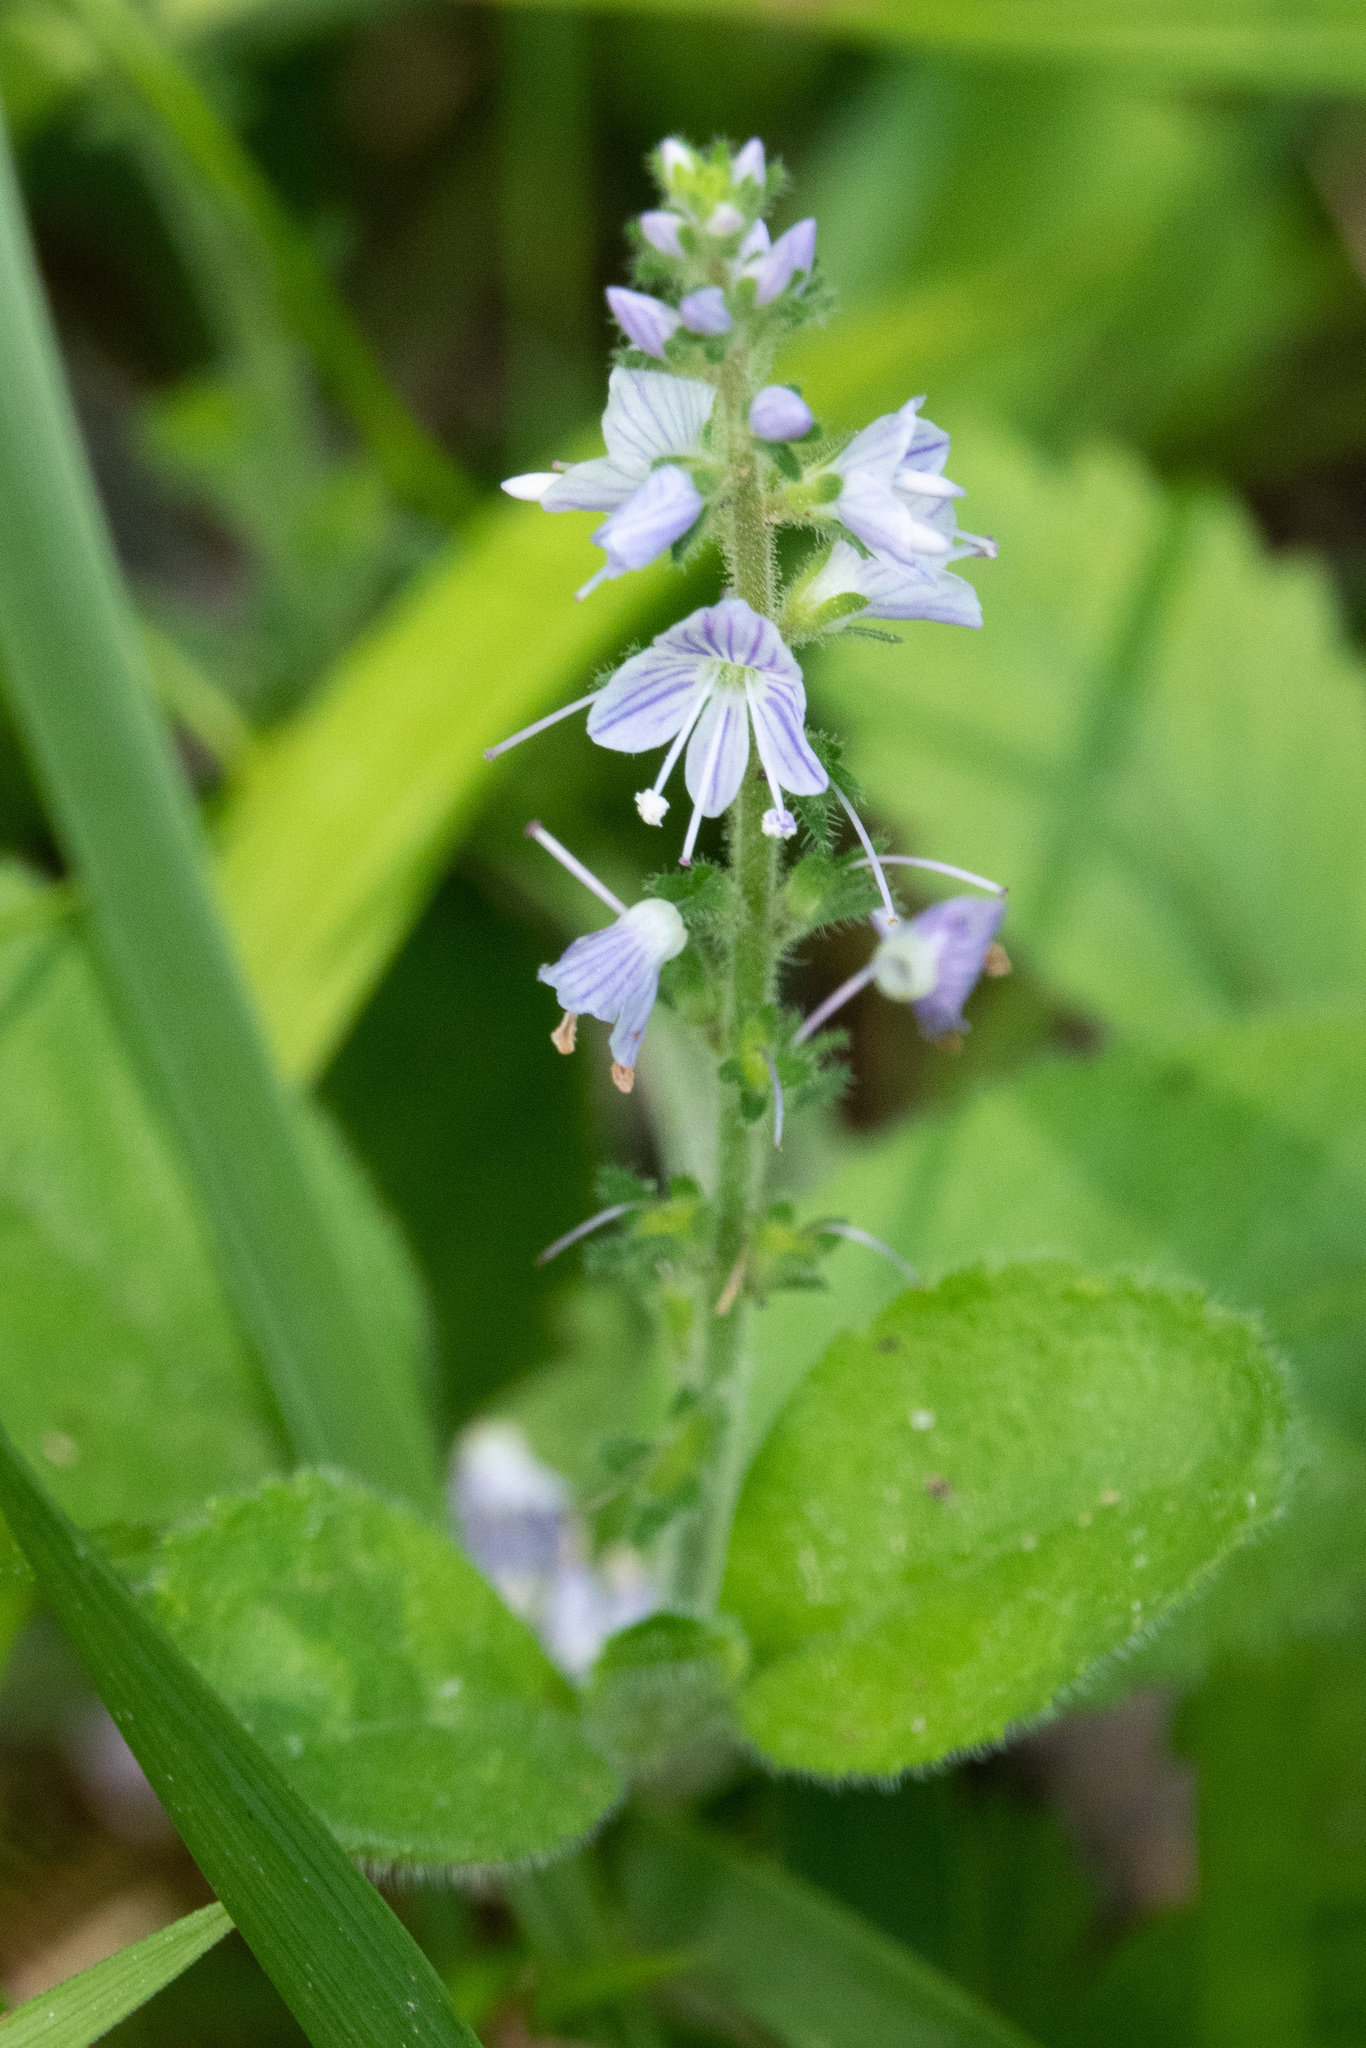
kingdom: Plantae
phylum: Tracheophyta
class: Magnoliopsida
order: Lamiales
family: Plantaginaceae
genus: Veronica
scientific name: Veronica officinalis
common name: Common speedwell
